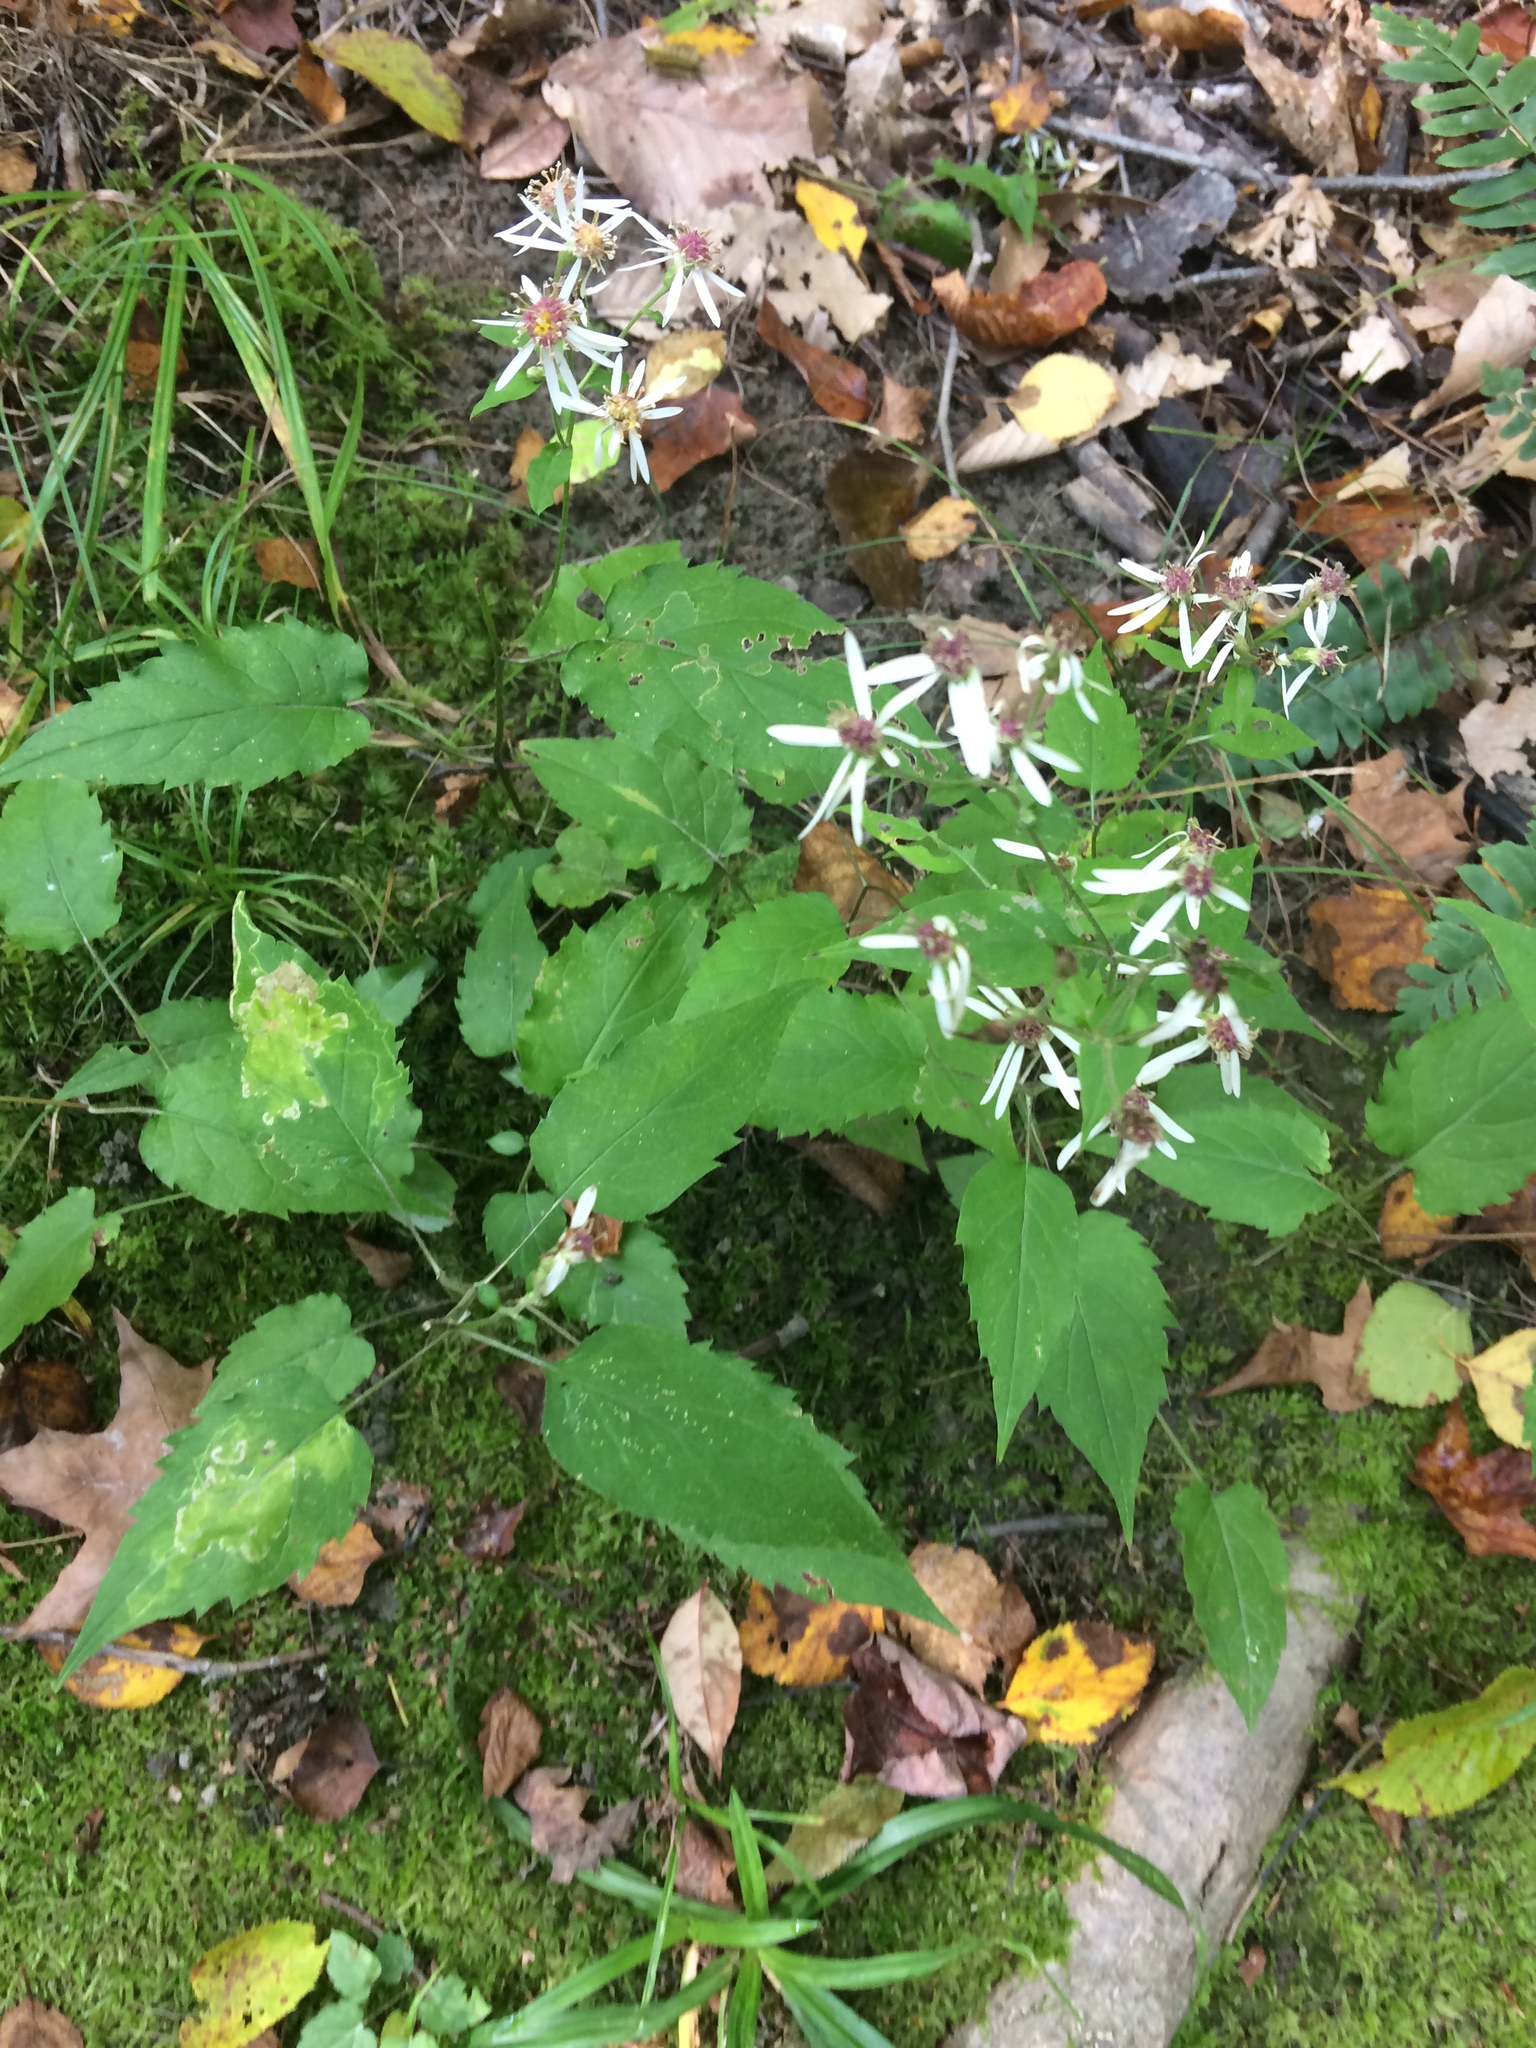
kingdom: Plantae
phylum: Tracheophyta
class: Magnoliopsida
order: Asterales
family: Asteraceae
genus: Eurybia
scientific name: Eurybia divaricata
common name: White wood aster
